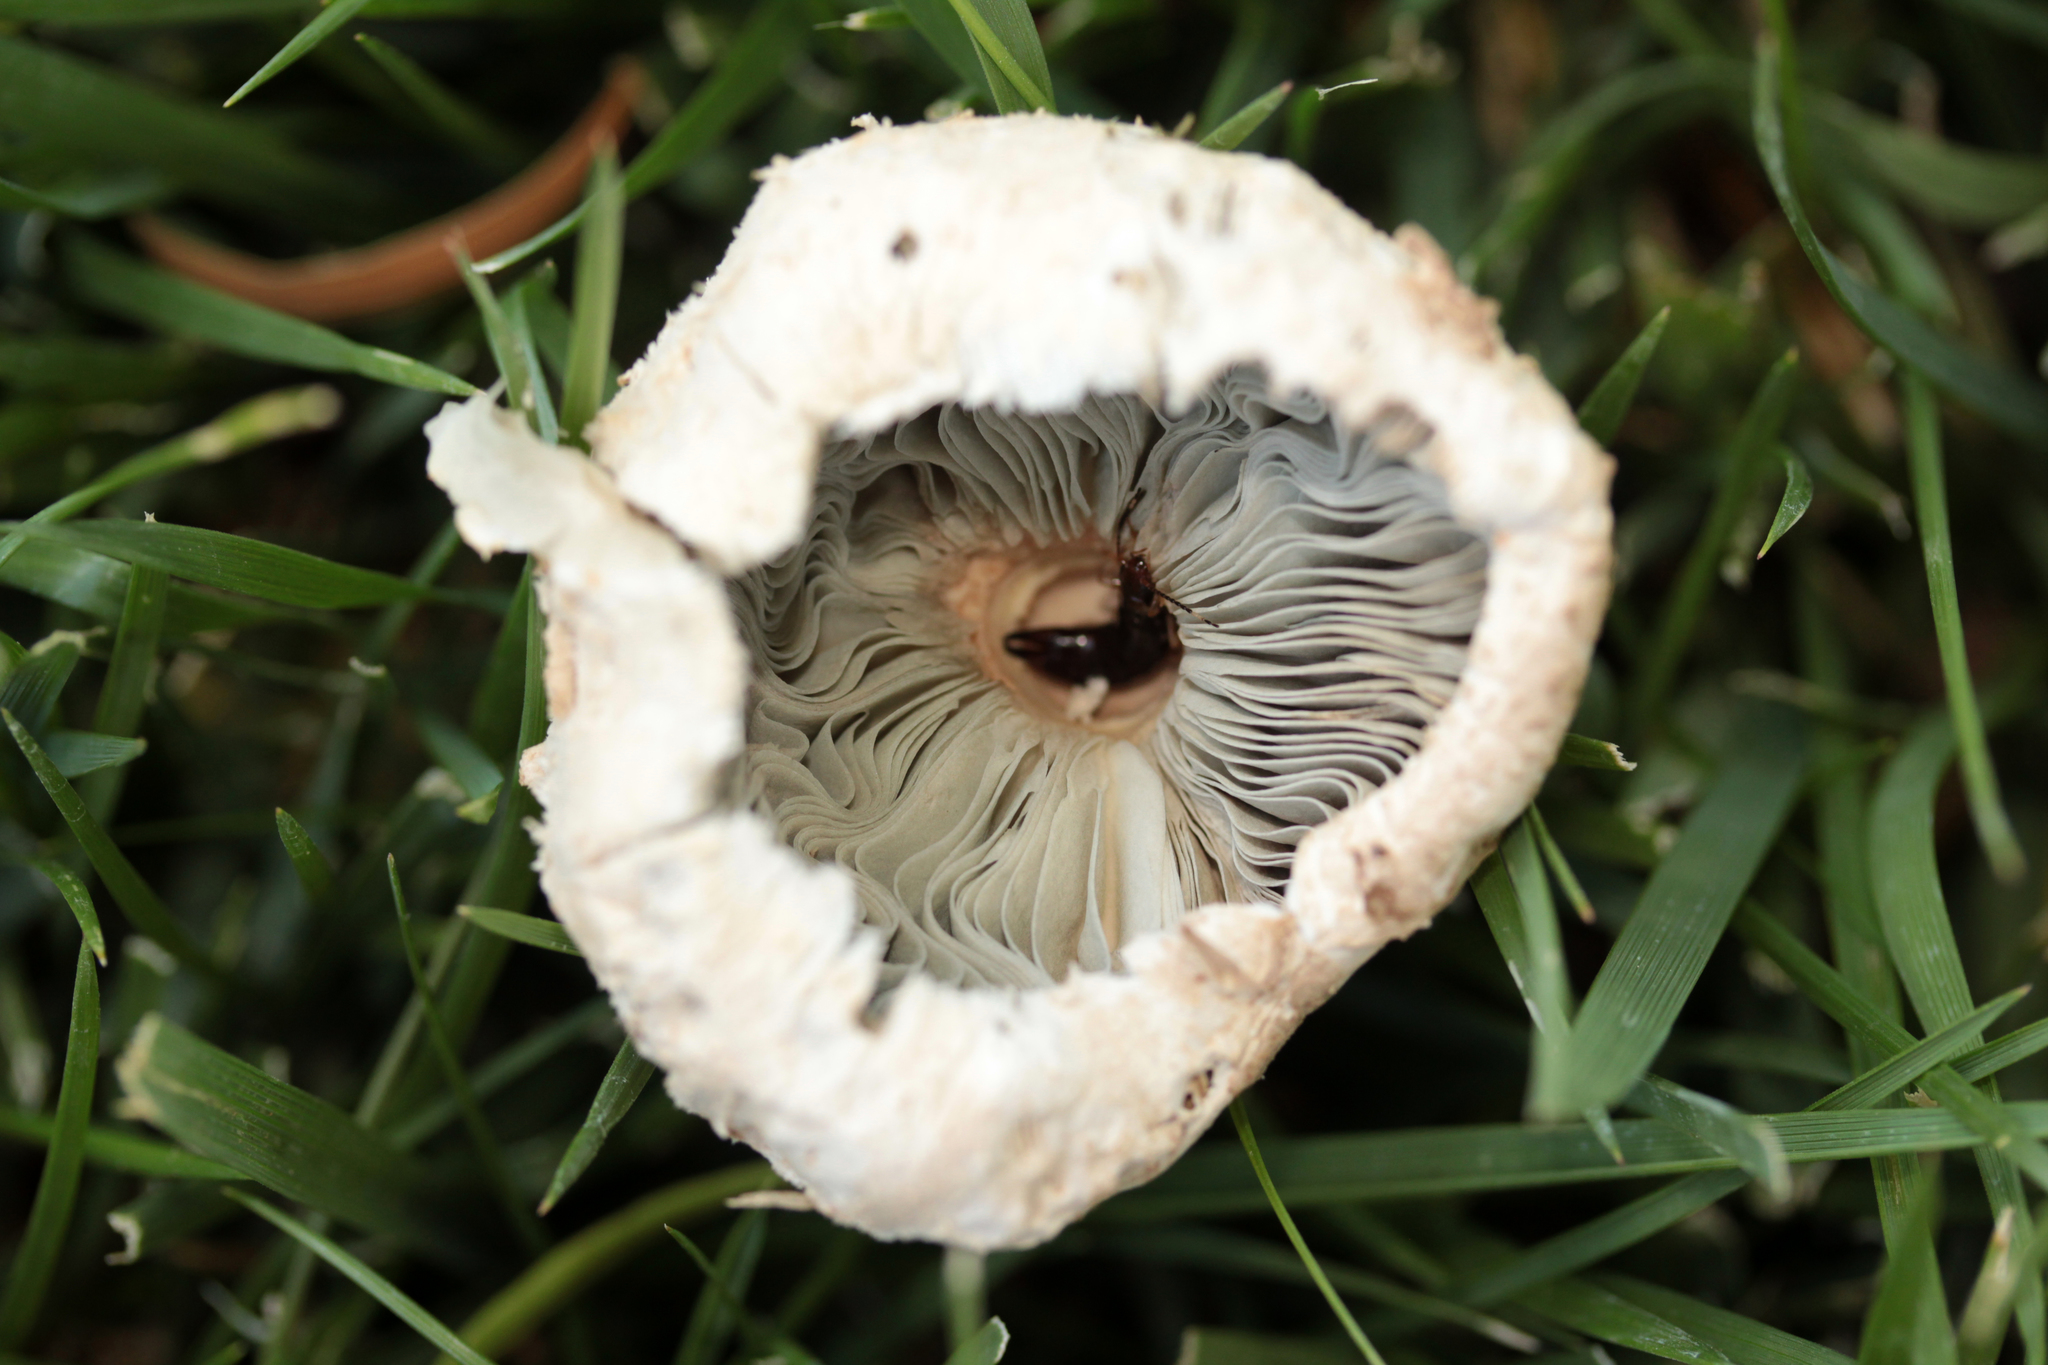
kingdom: Fungi
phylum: Basidiomycota
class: Agaricomycetes
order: Agaricales
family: Agaricaceae
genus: Chlorophyllum
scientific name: Chlorophyllum molybdites
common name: False parasol
